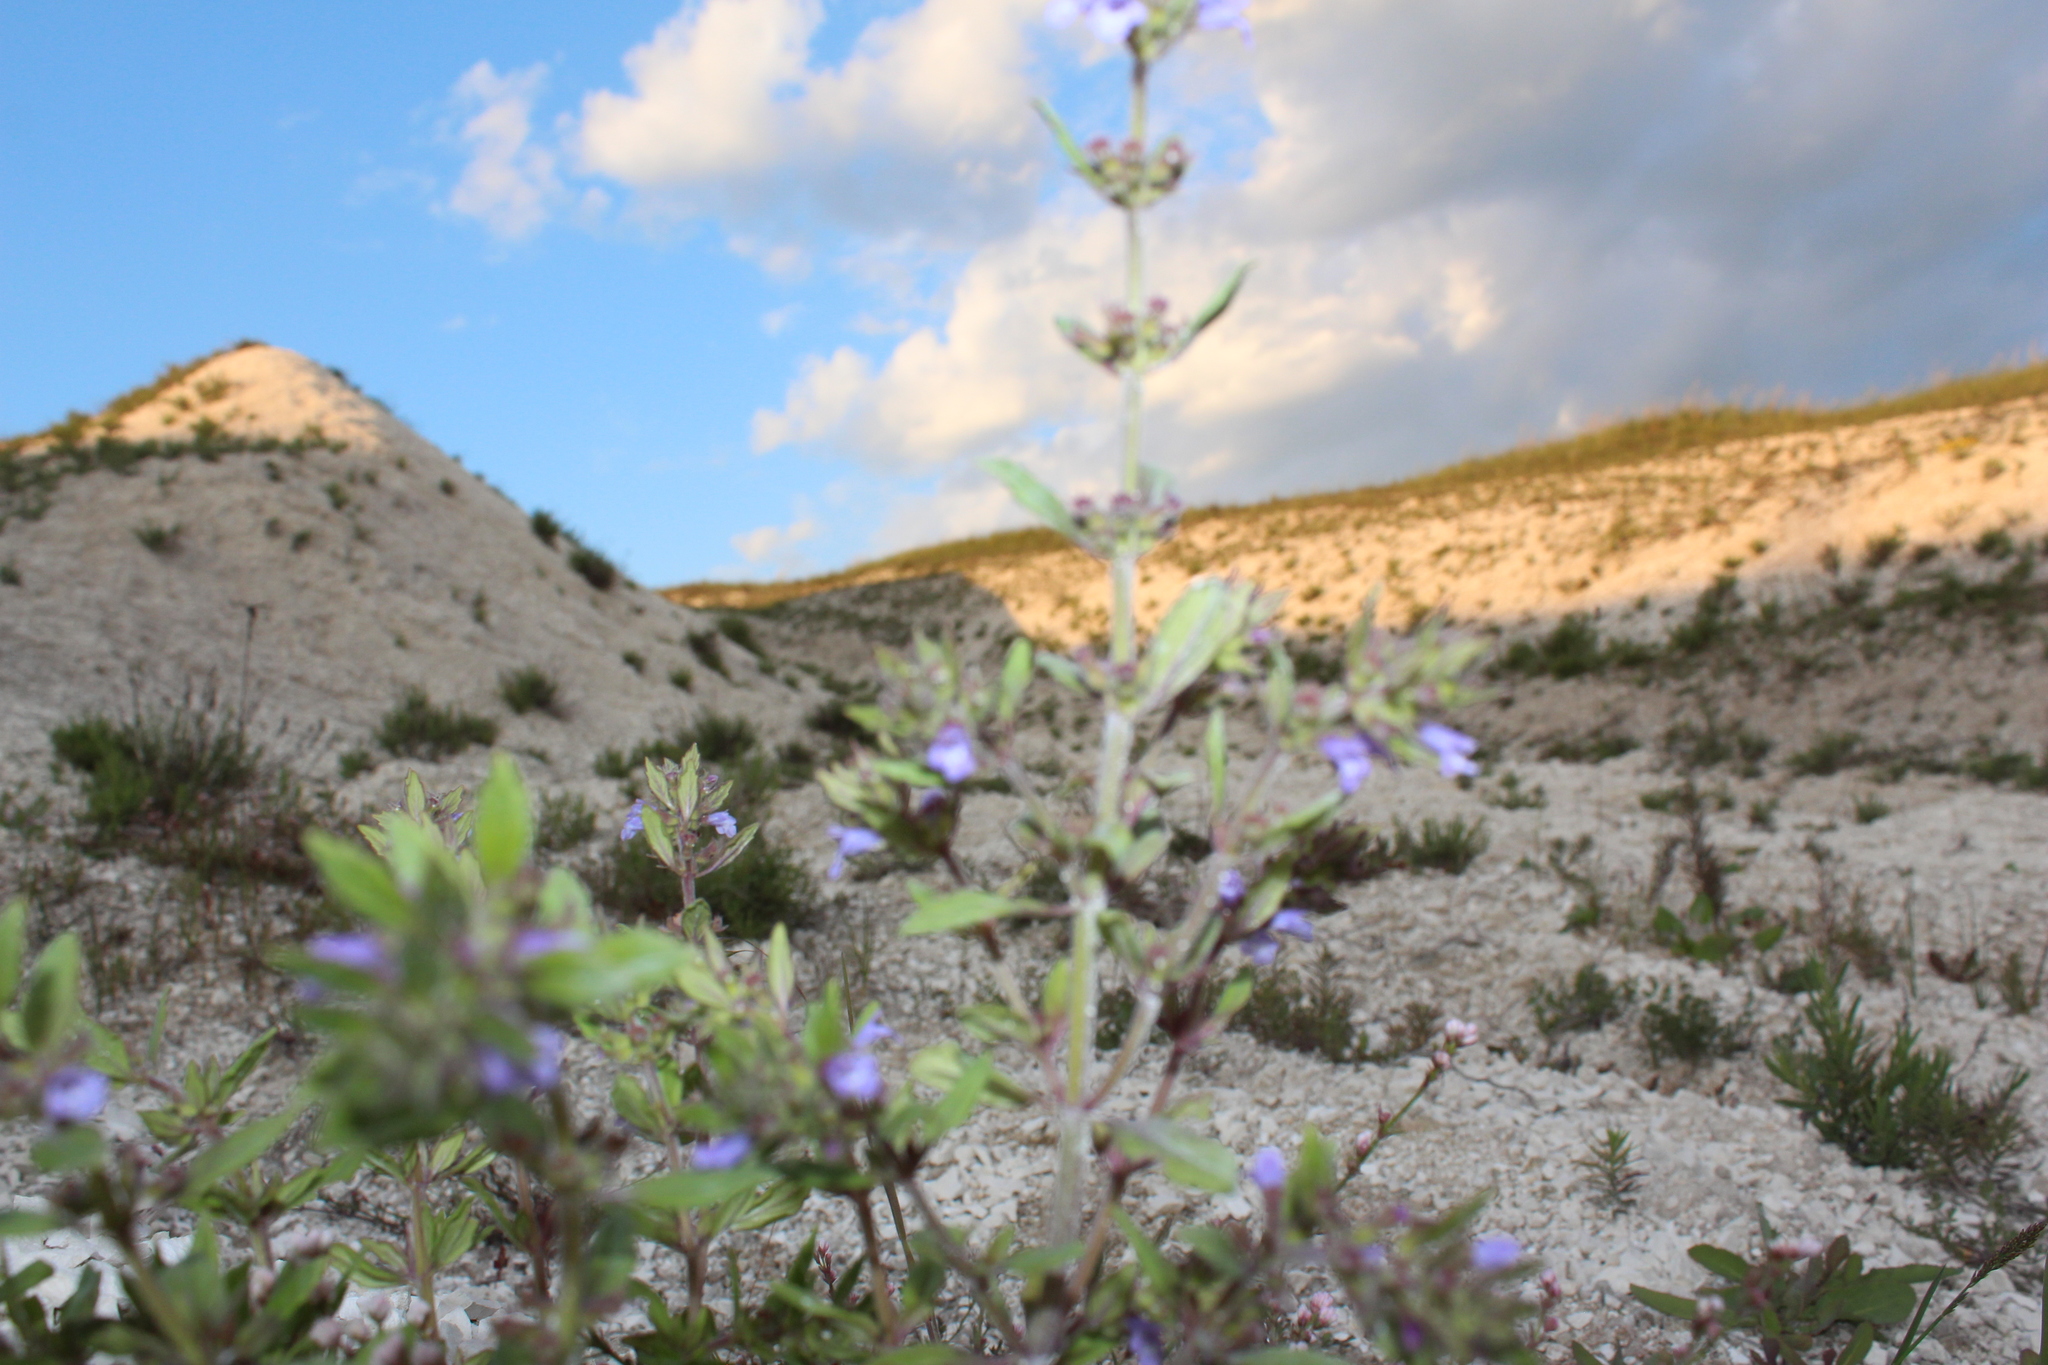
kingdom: Plantae
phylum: Tracheophyta
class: Magnoliopsida
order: Lamiales
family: Lamiaceae
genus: Clinopodium
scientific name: Clinopodium acinos
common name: Basil thyme
